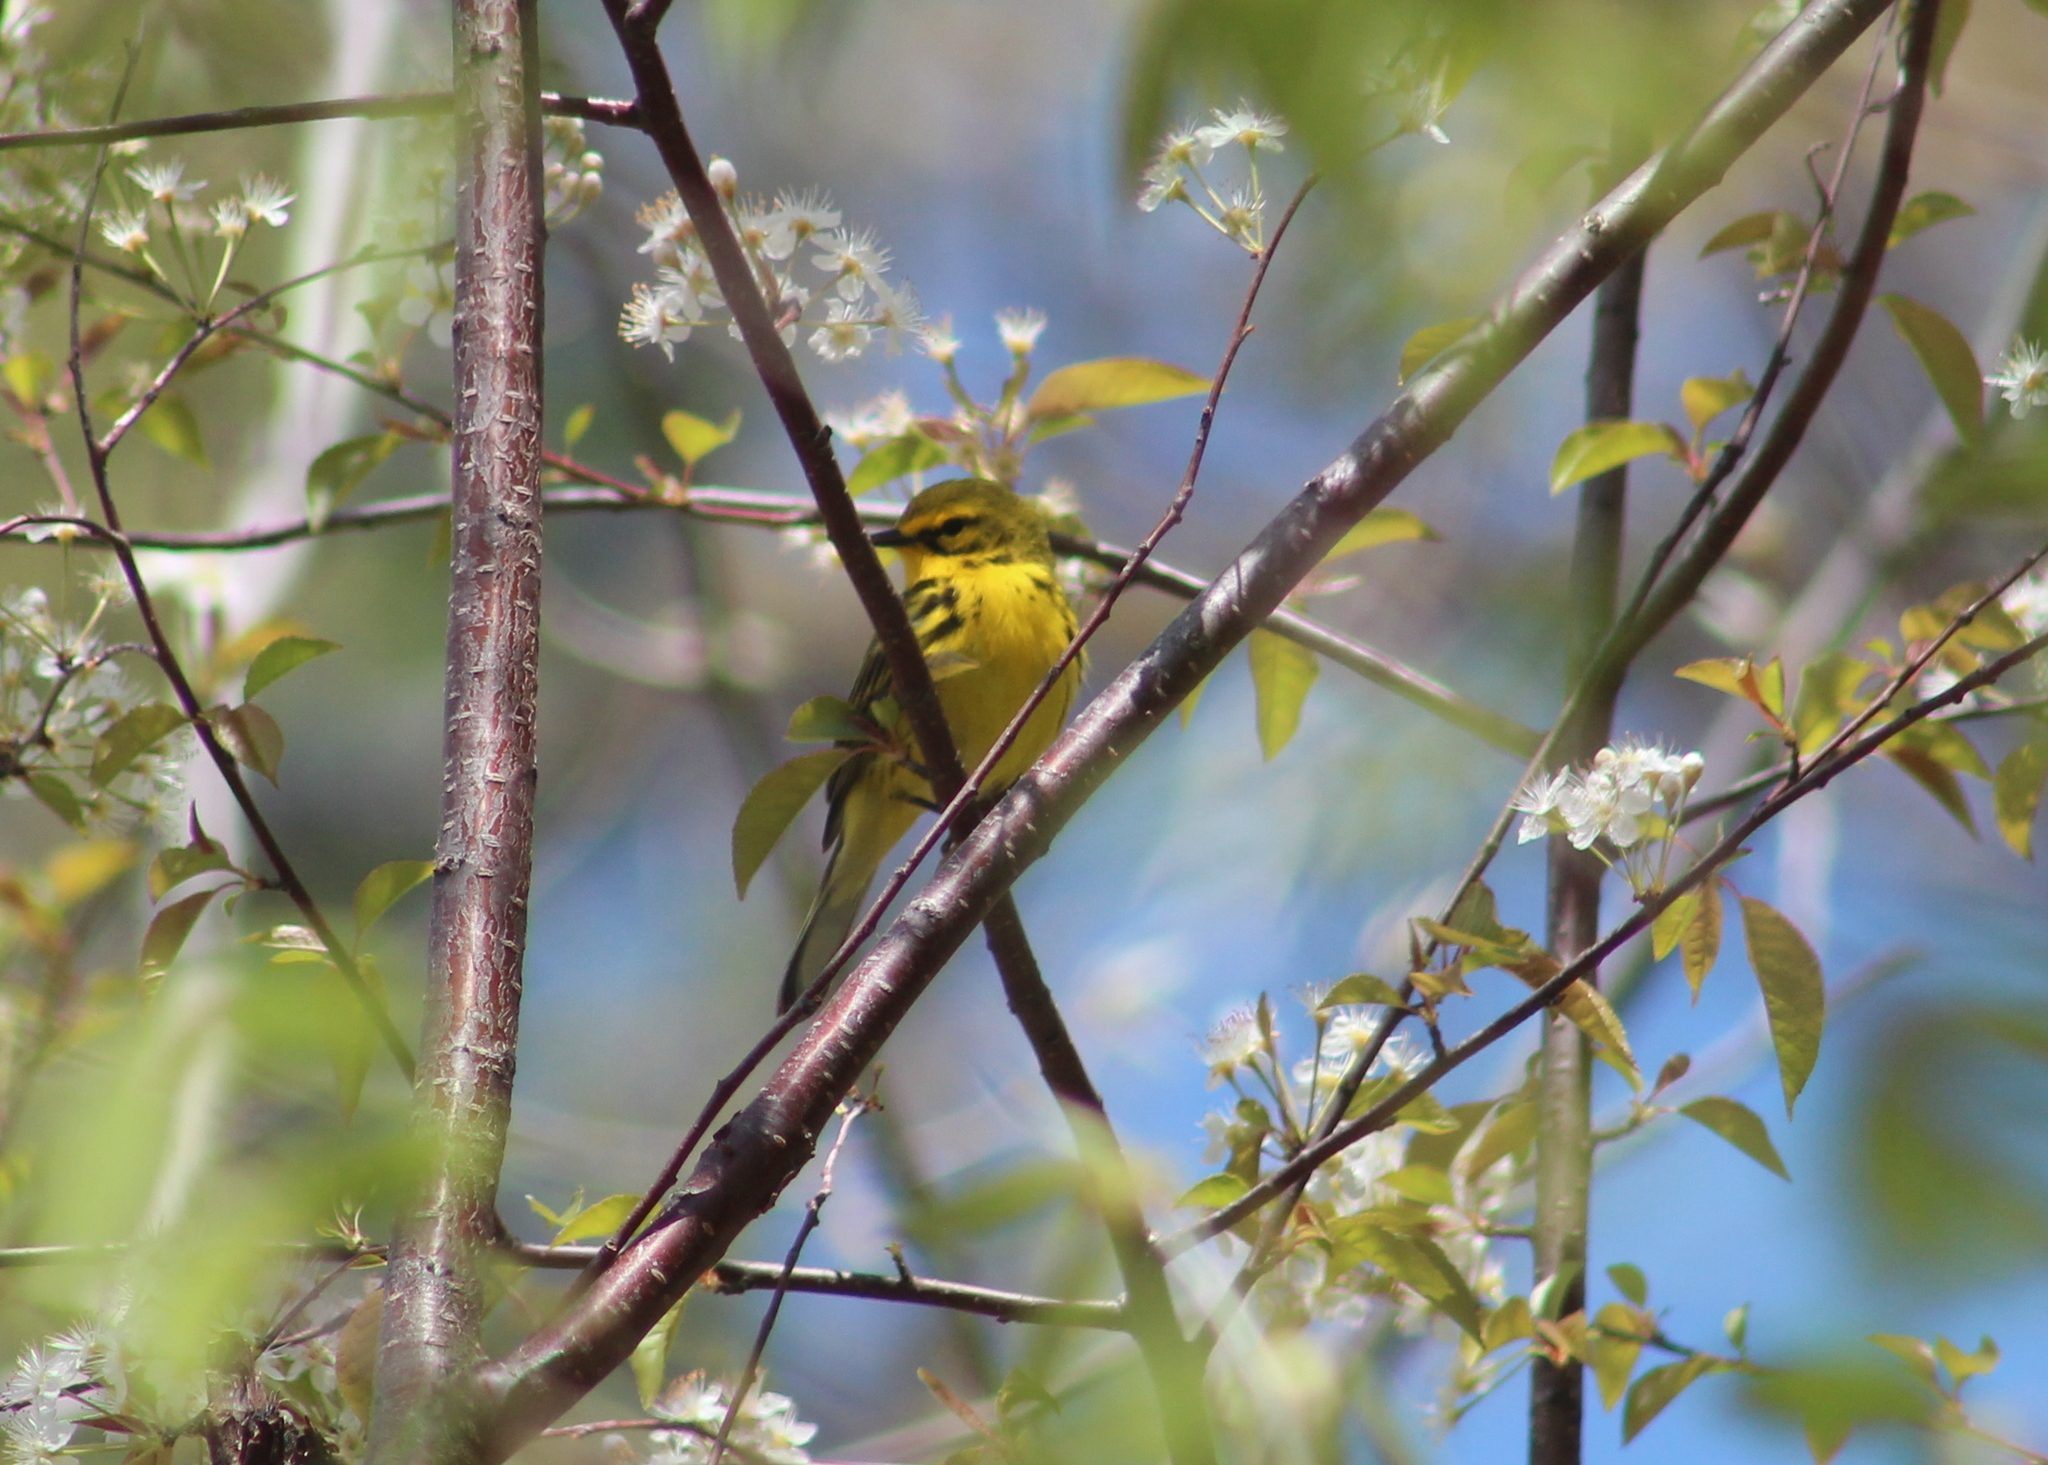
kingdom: Animalia
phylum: Chordata
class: Aves
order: Passeriformes
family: Parulidae
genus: Setophaga
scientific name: Setophaga discolor
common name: Prairie warbler
